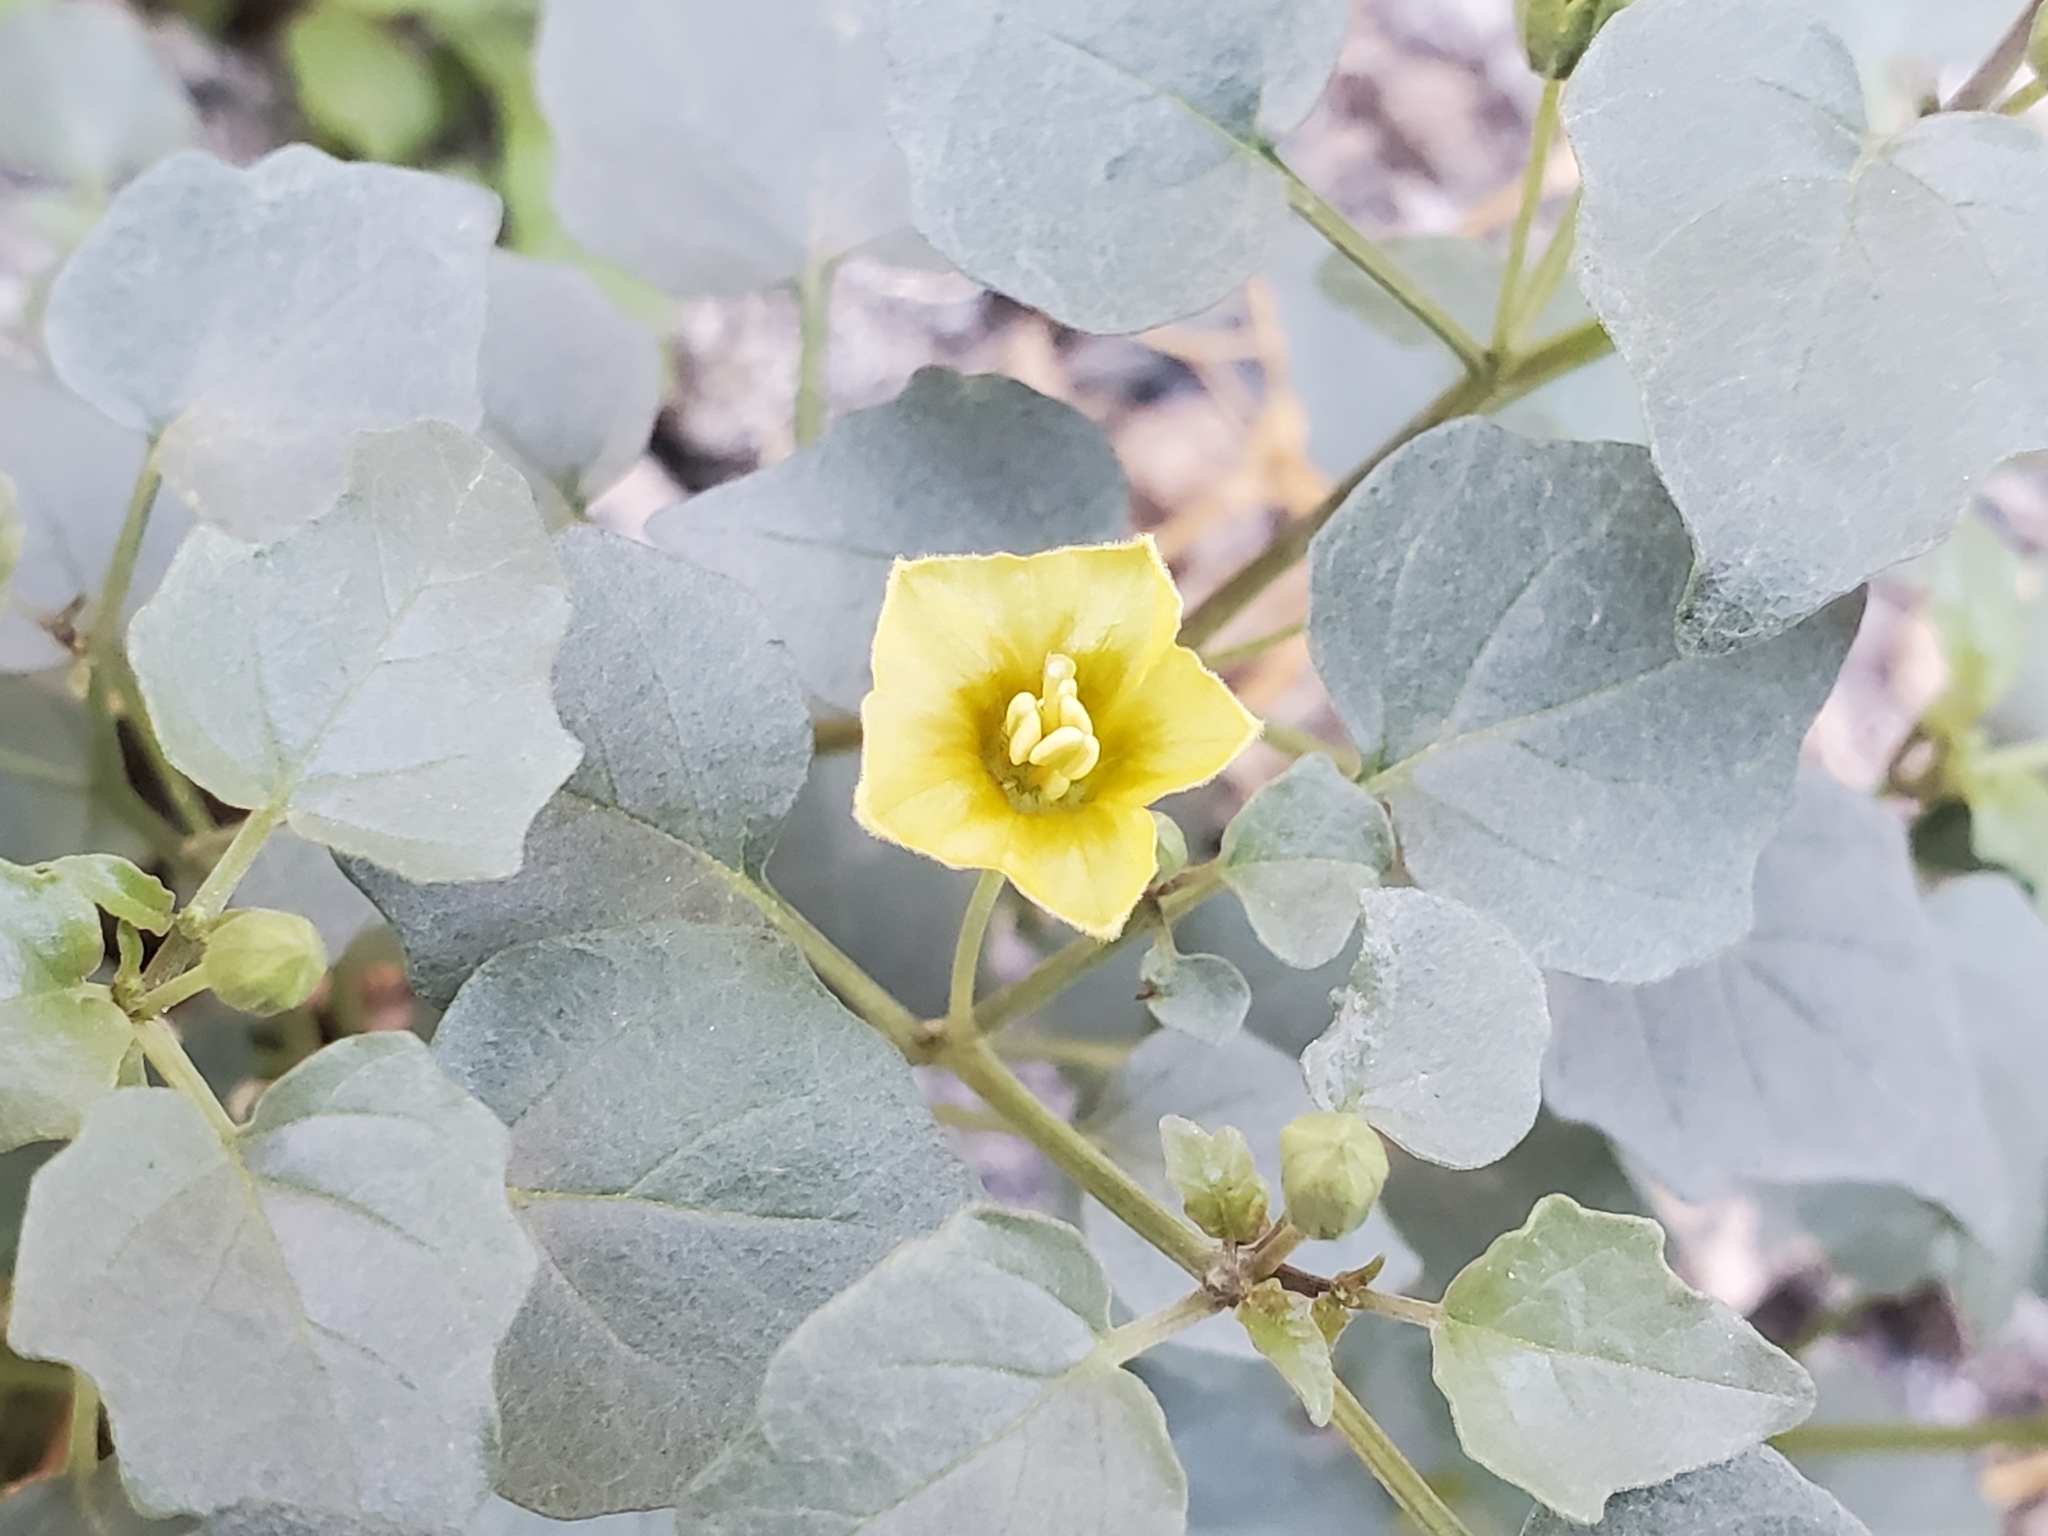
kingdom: Plantae
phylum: Tracheophyta
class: Magnoliopsida
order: Solanales
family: Solanaceae
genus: Physalis
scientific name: Physalis crassifolia
